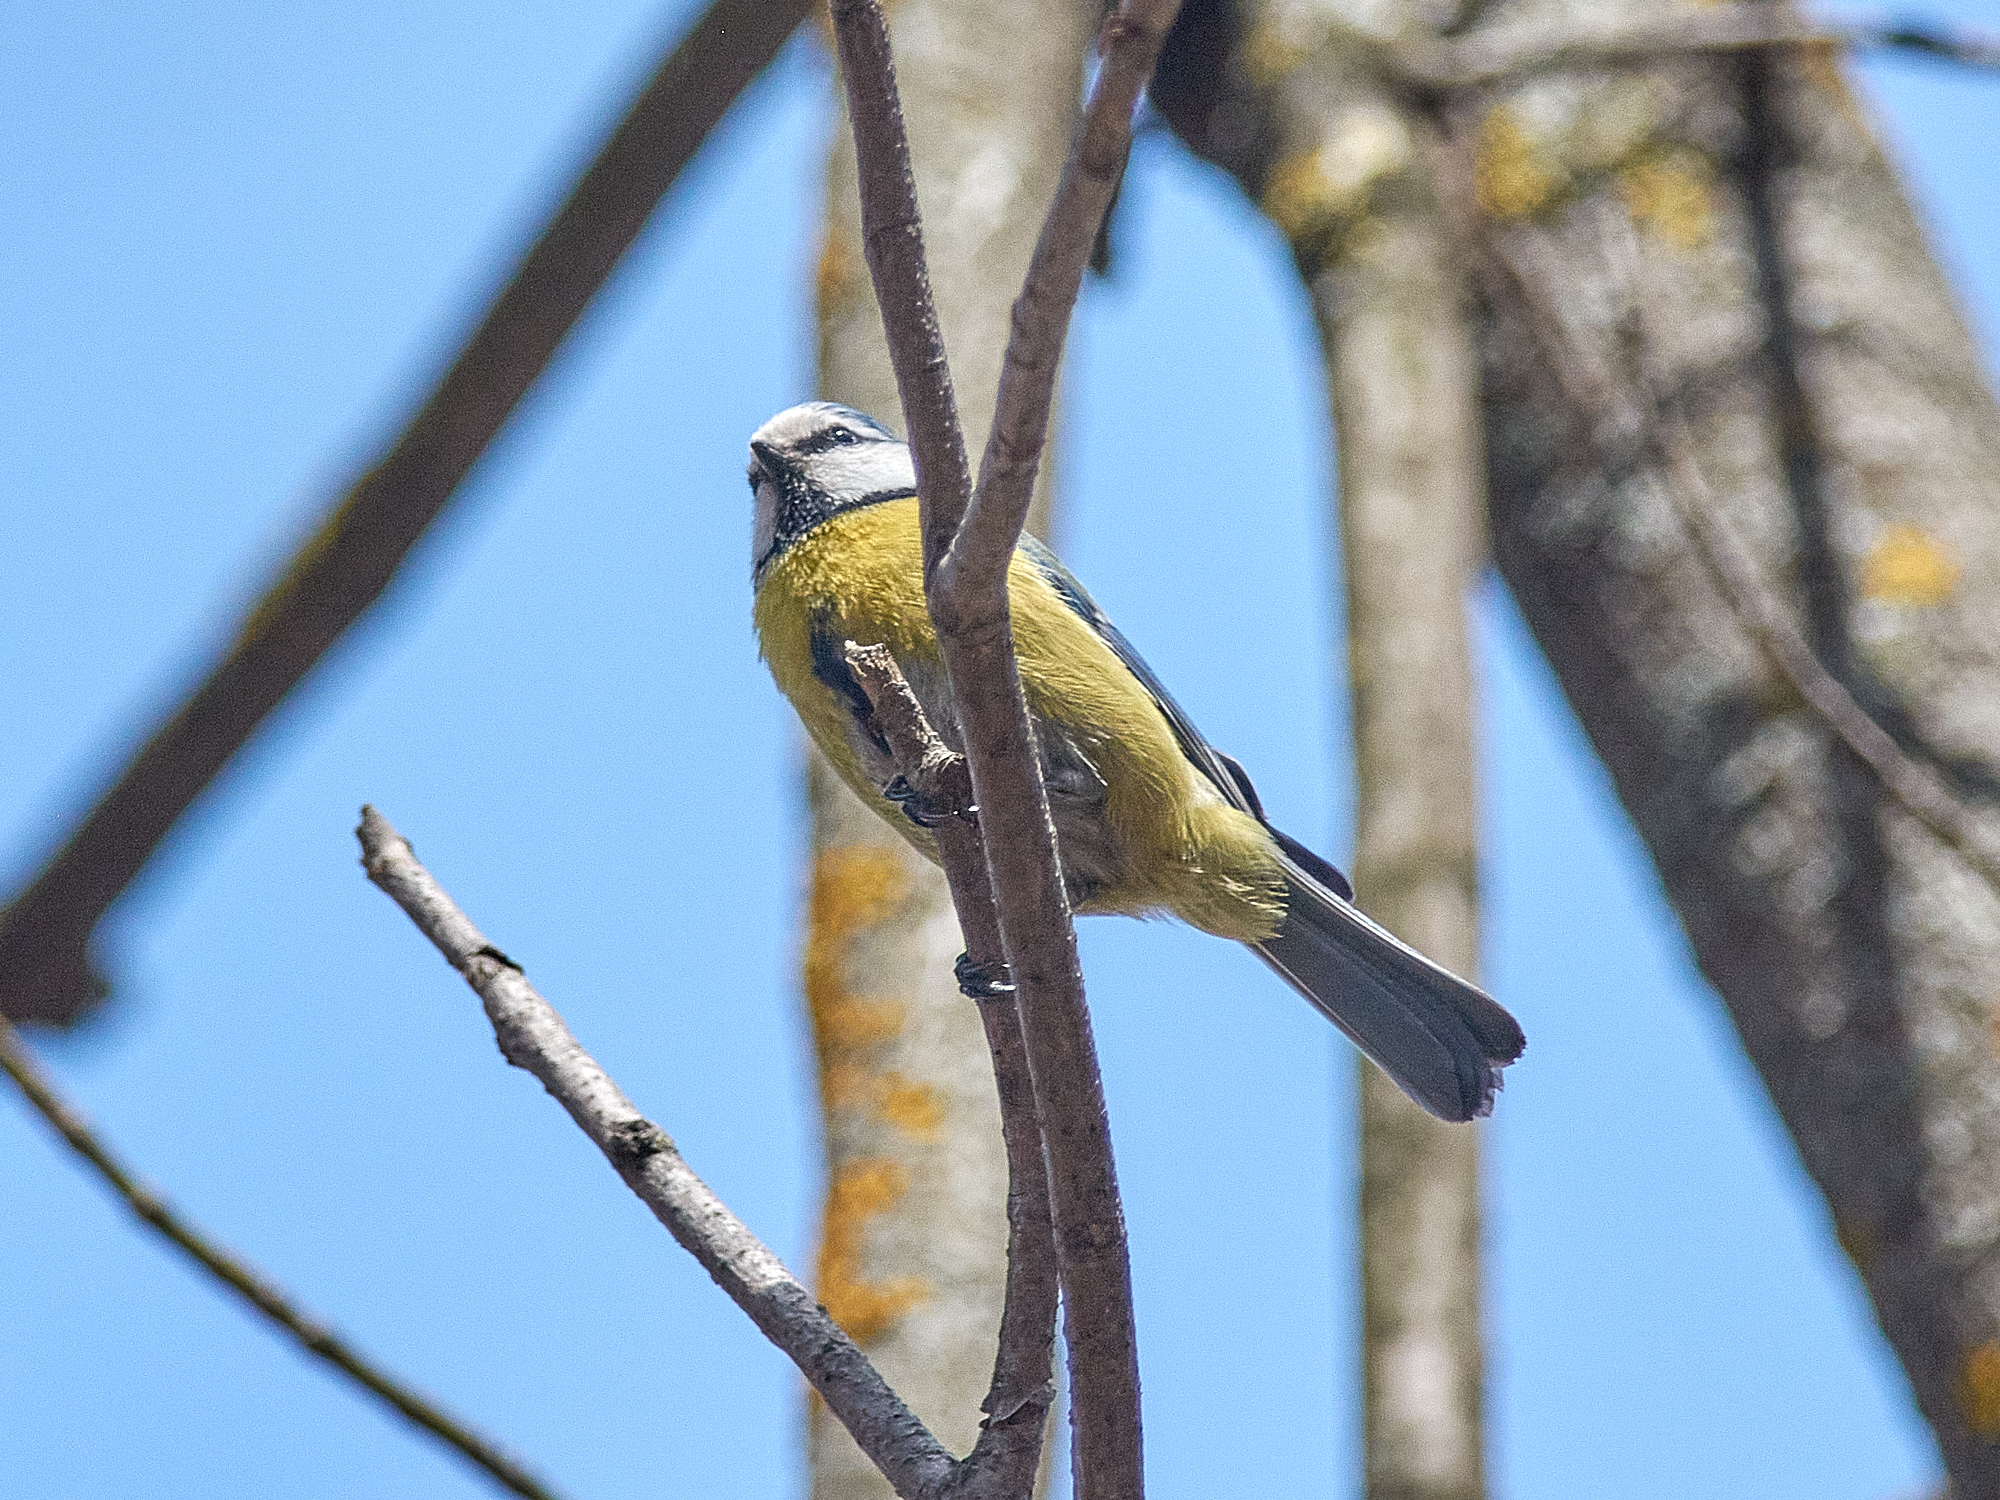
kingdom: Animalia
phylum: Chordata
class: Aves
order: Passeriformes
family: Paridae
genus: Cyanistes
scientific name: Cyanistes caeruleus
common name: Eurasian blue tit
